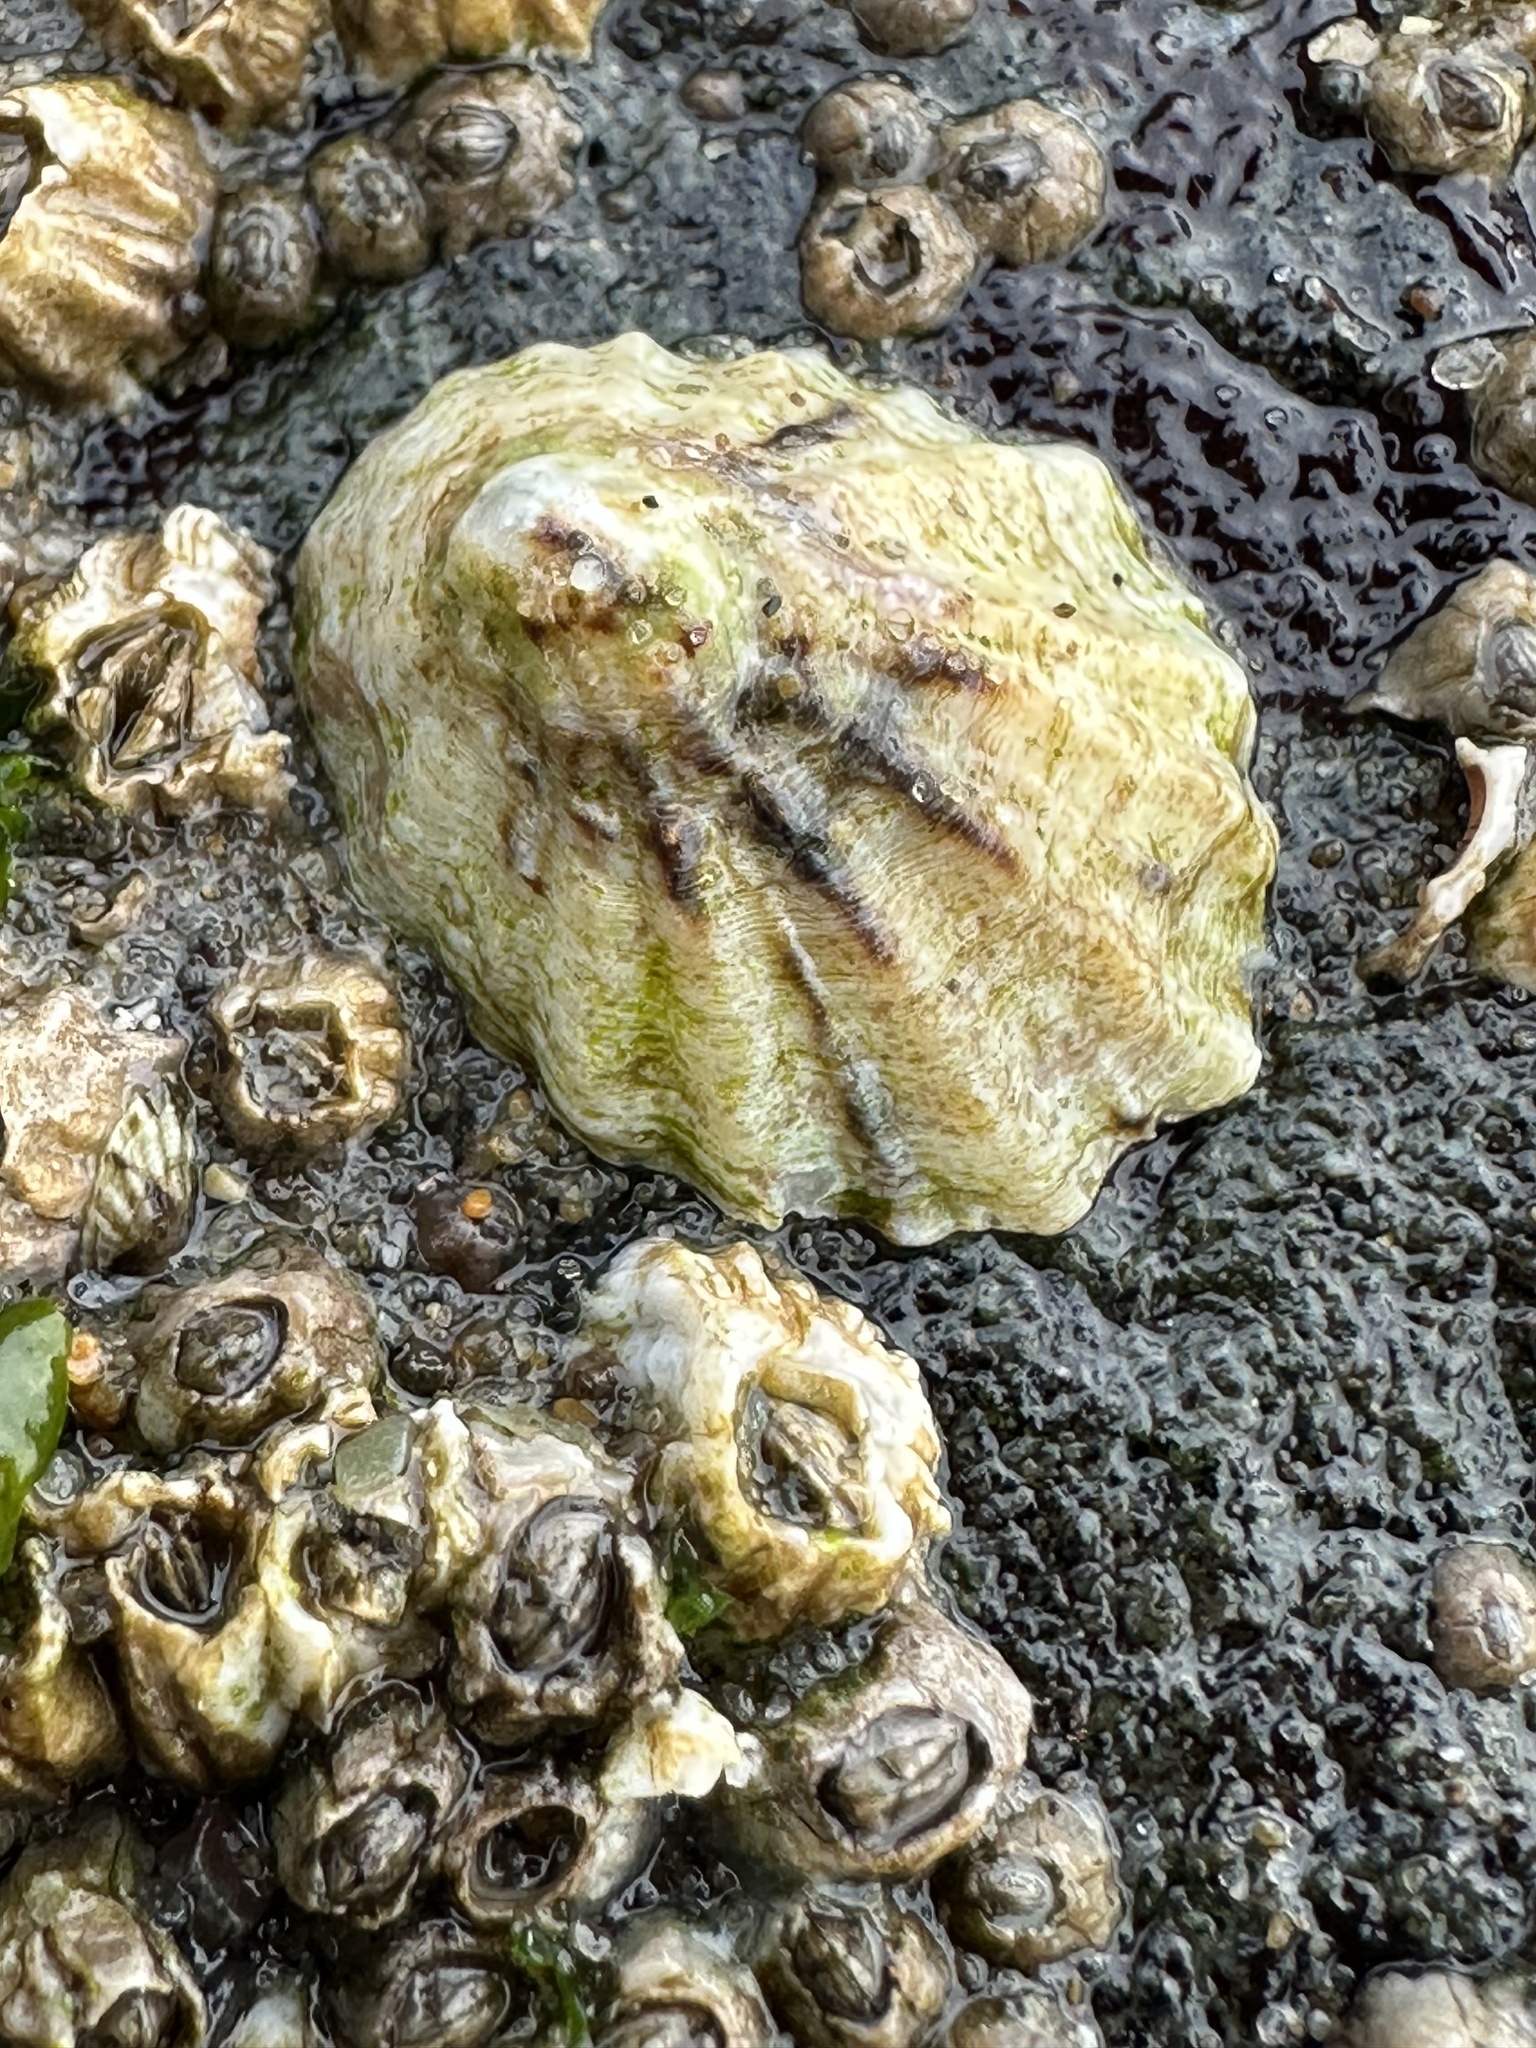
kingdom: Animalia
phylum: Mollusca
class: Gastropoda
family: Lottiidae
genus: Lottia
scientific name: Lottia scabra
